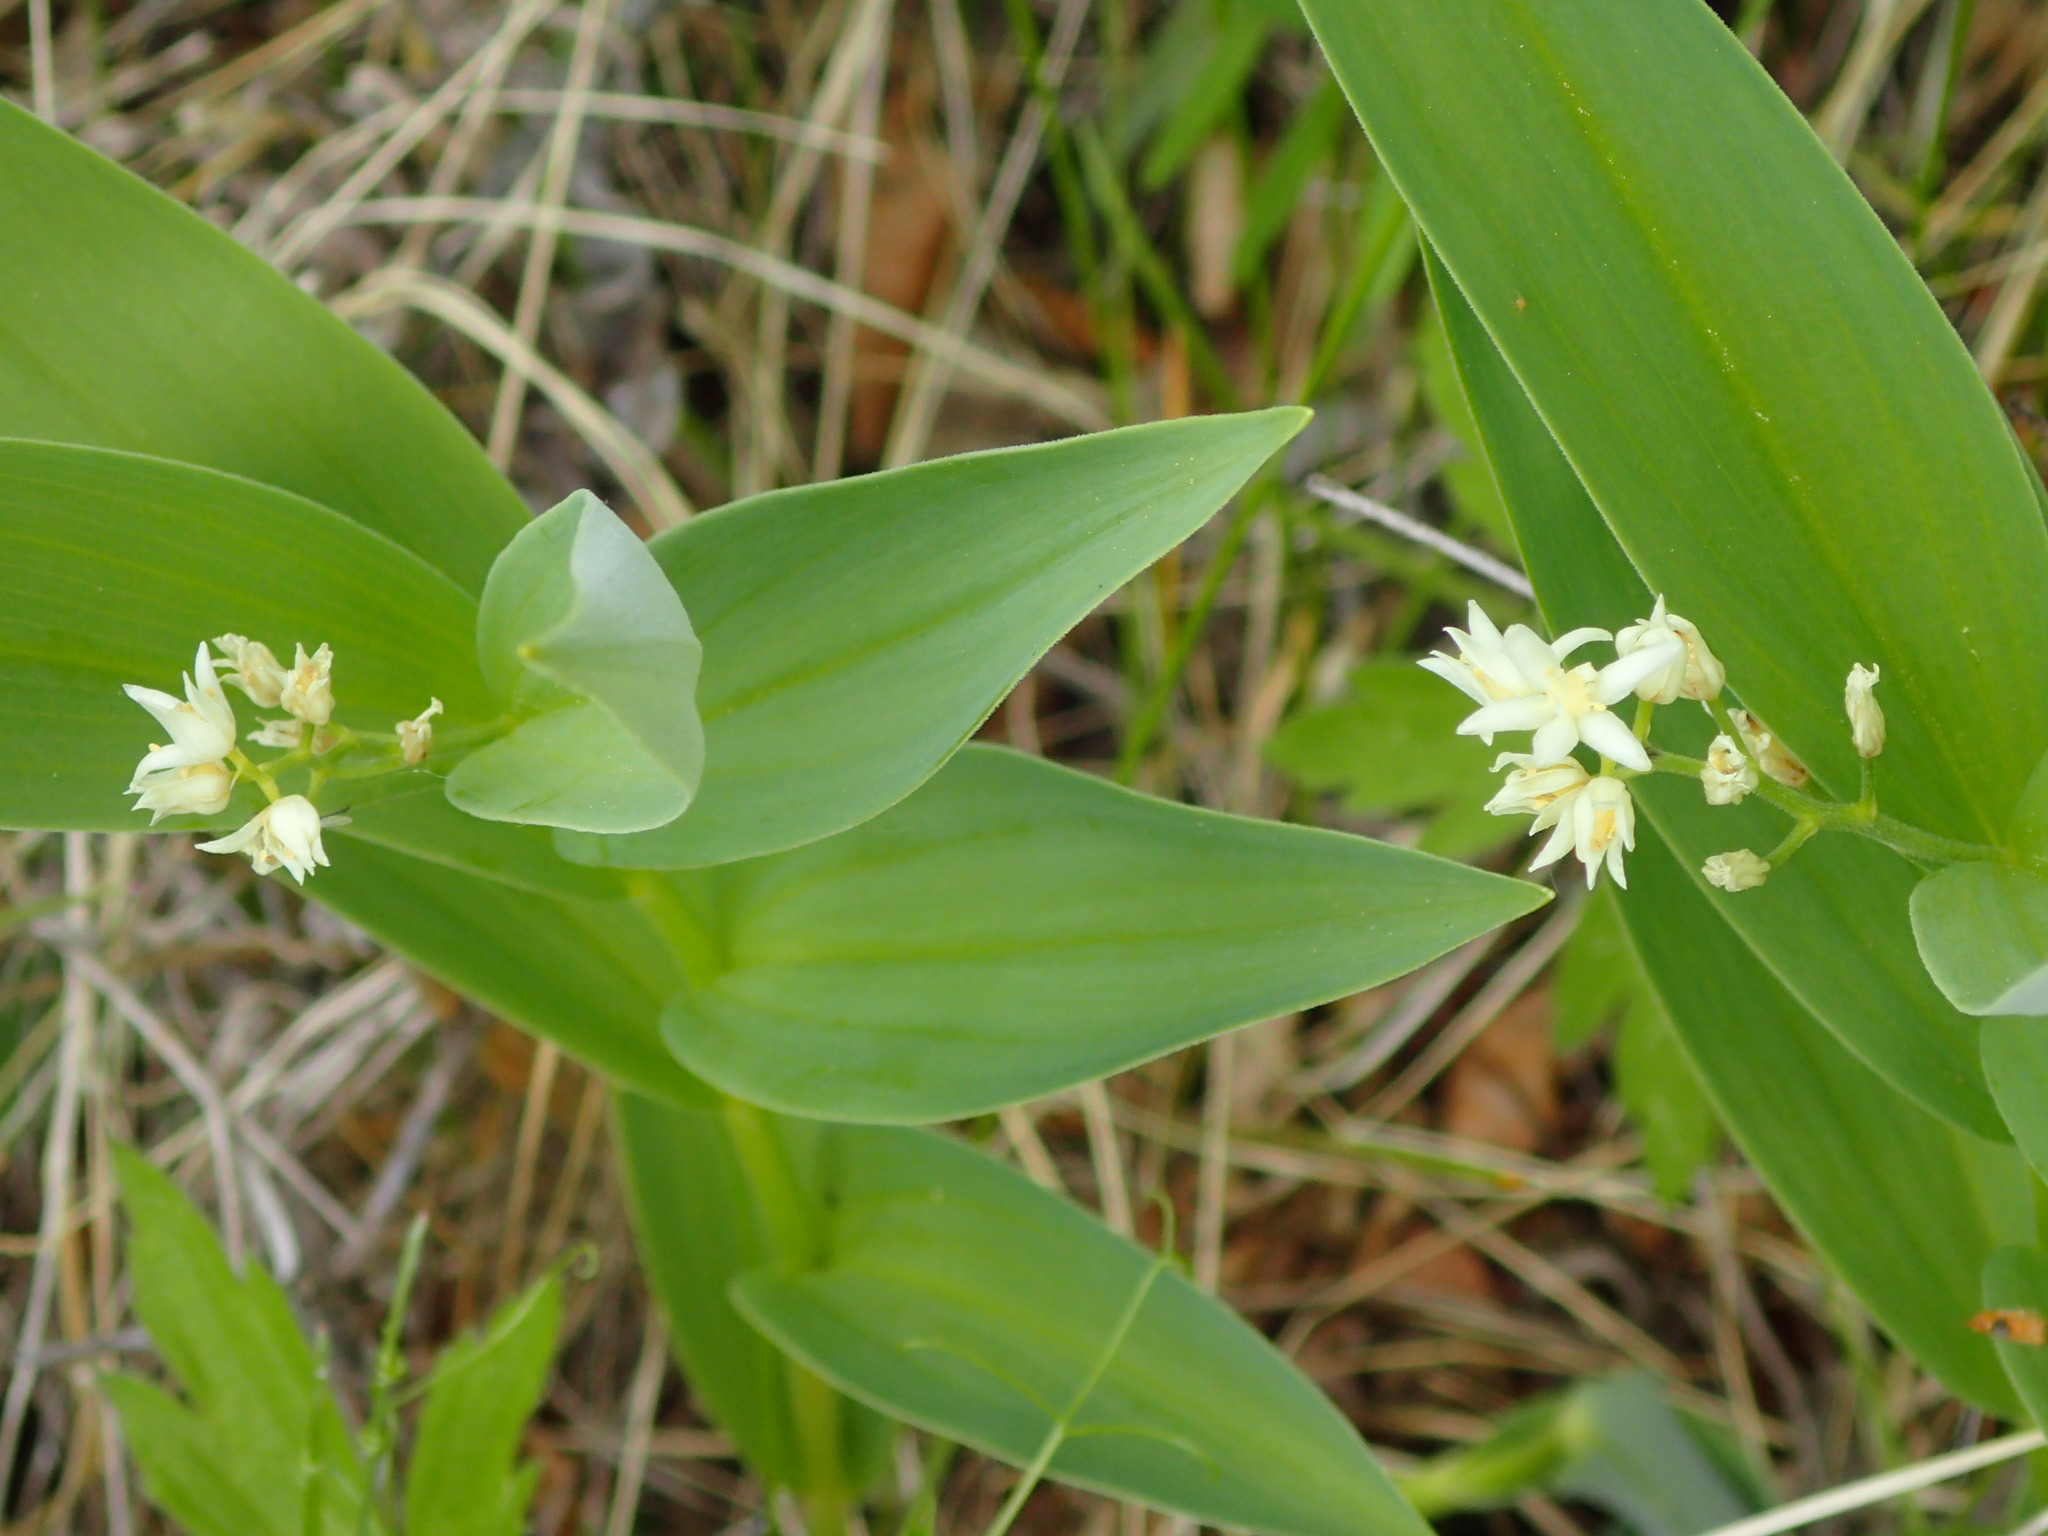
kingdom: Plantae
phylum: Tracheophyta
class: Liliopsida
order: Asparagales
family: Asparagaceae
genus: Maianthemum
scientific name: Maianthemum stellatum
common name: Little false solomon's seal
